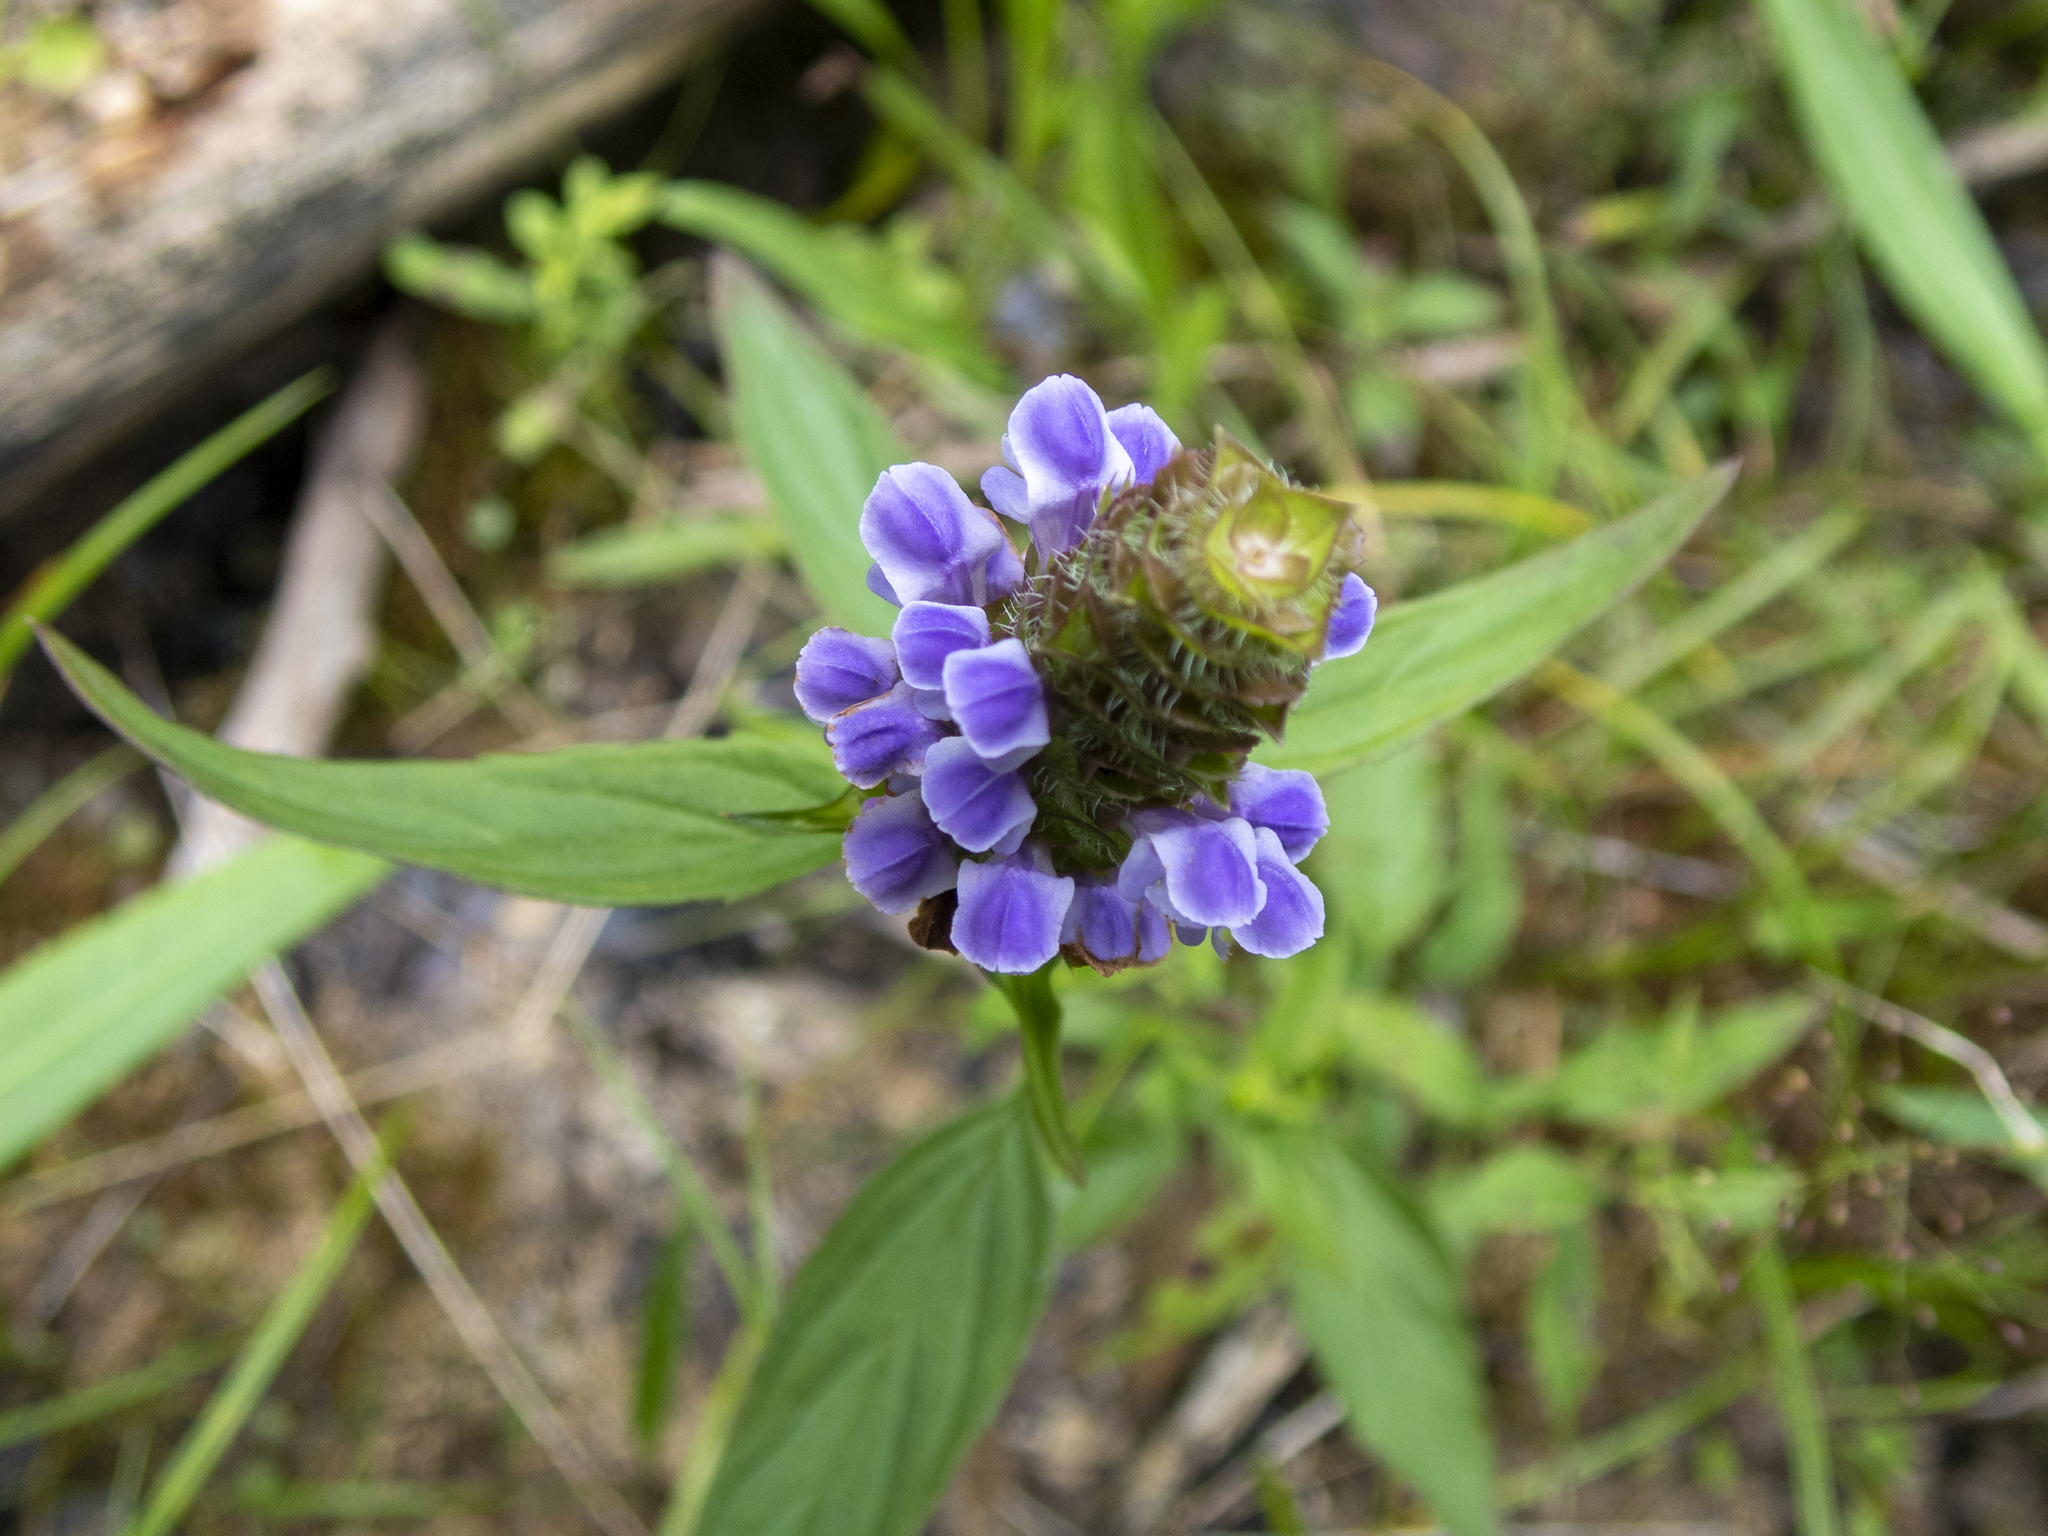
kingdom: Plantae
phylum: Tracheophyta
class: Magnoliopsida
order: Lamiales
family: Lamiaceae
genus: Prunella
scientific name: Prunella vulgaris
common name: Heal-all
